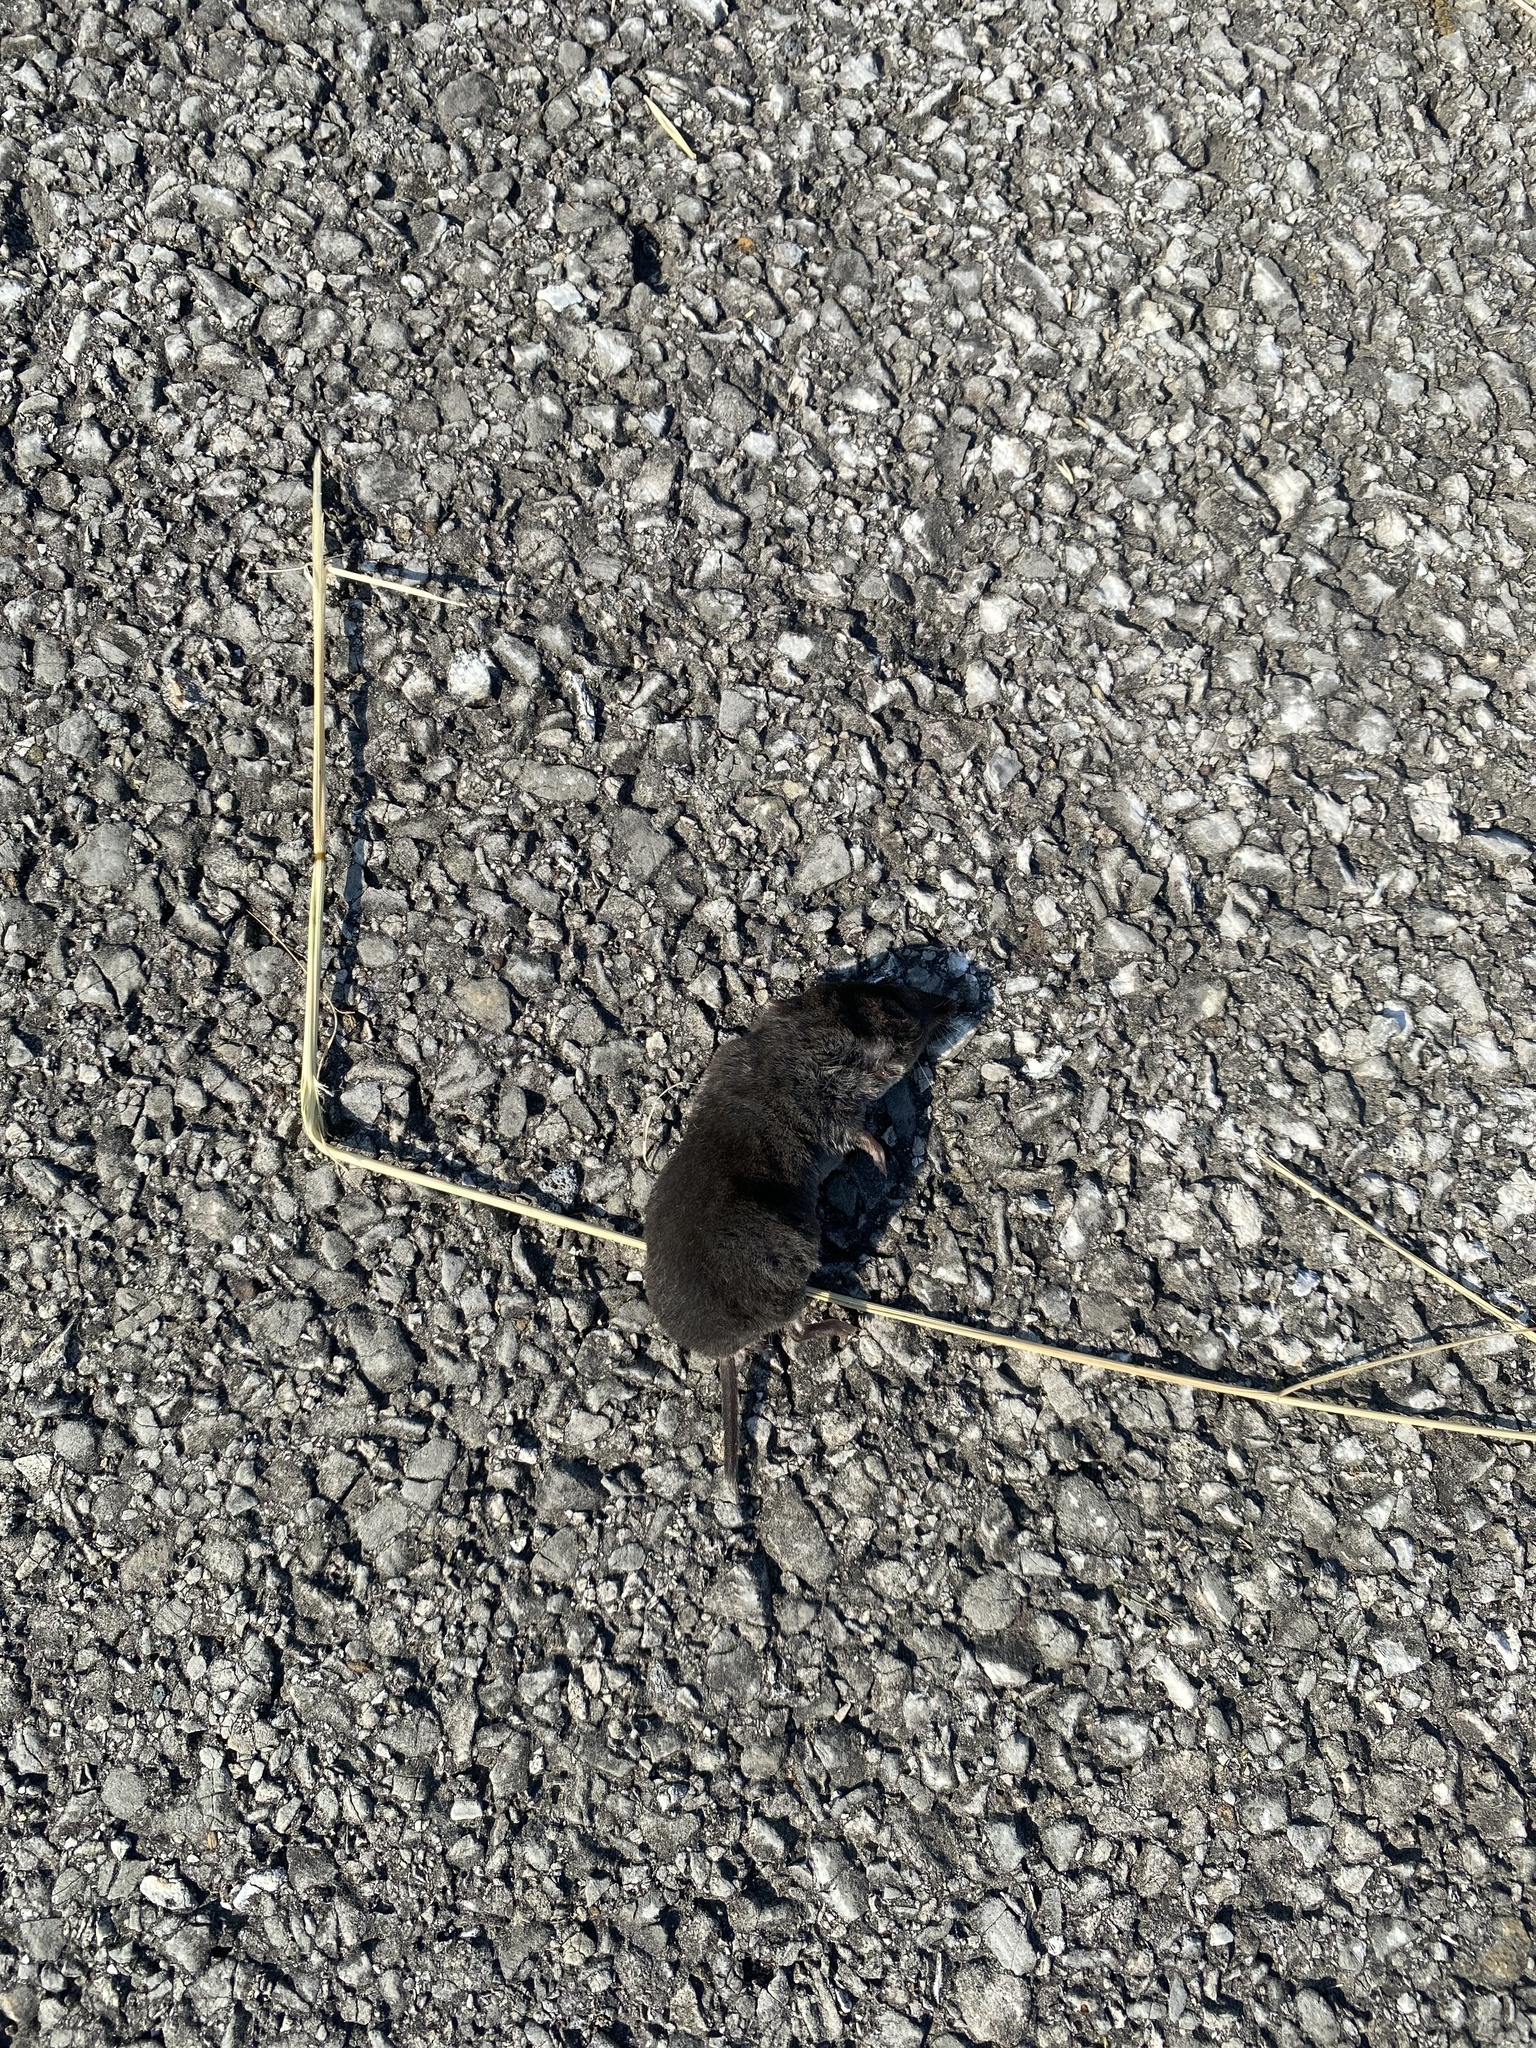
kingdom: Animalia
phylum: Chordata
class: Mammalia
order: Soricomorpha
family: Soricidae
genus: Blarina
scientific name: Blarina brevicauda
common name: Northern short-tailed shrew
